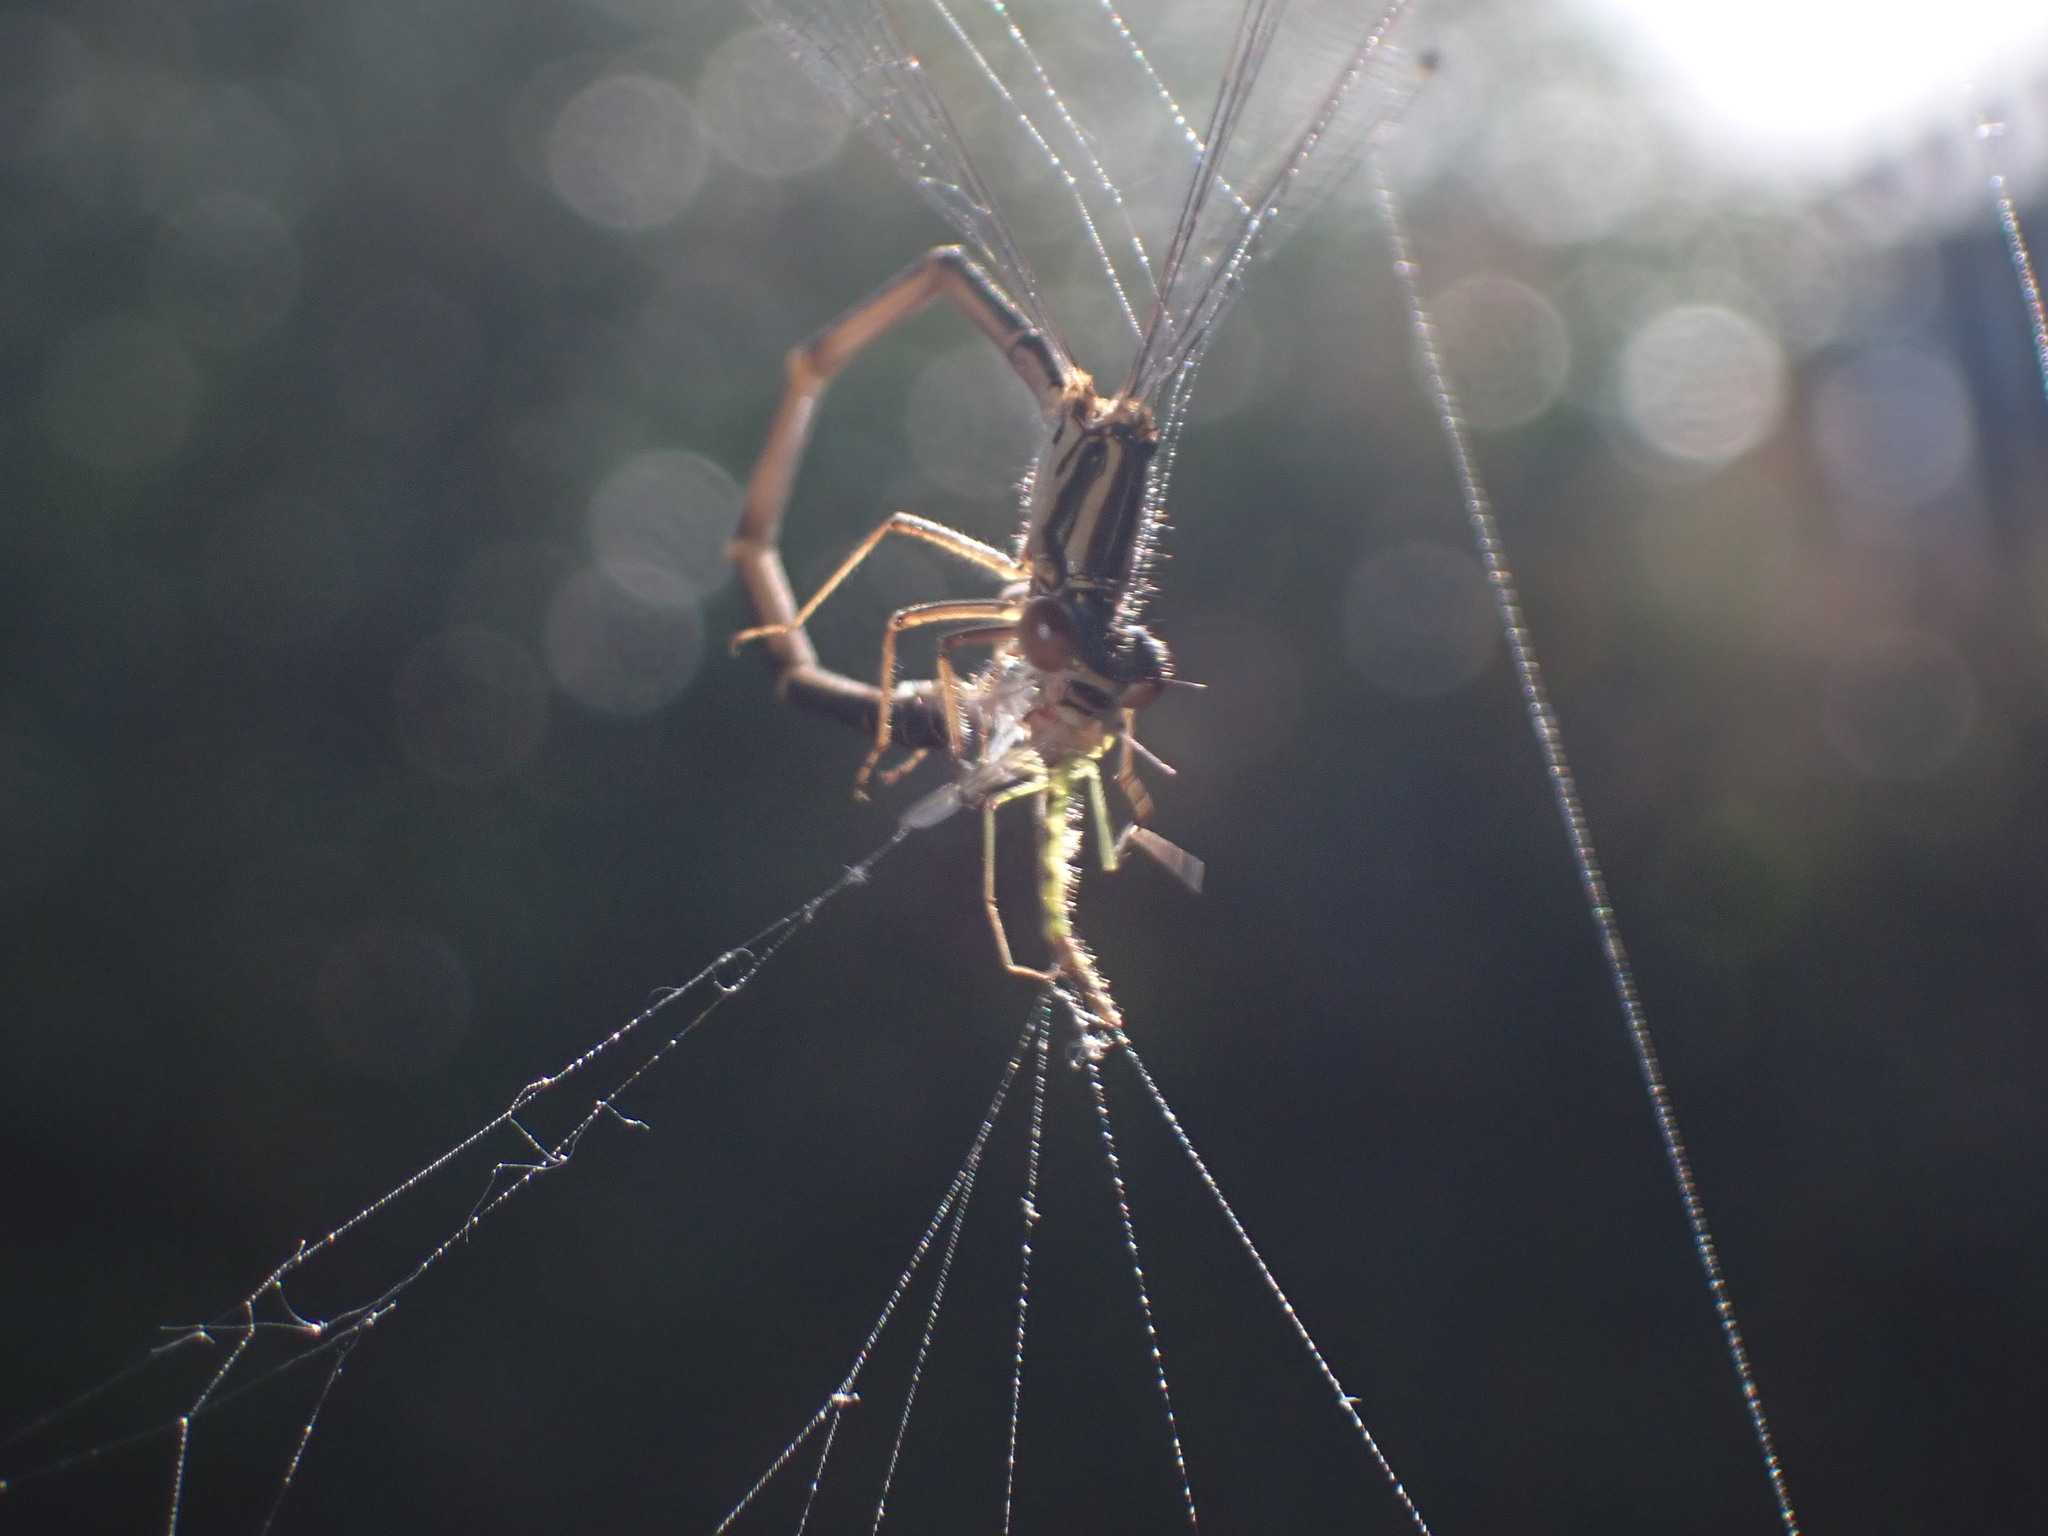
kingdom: Animalia
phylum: Arthropoda
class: Insecta
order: Odonata
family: Coenagrionidae
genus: Xanthocnemis
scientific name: Xanthocnemis zealandica
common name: Common redcoat damselfly
